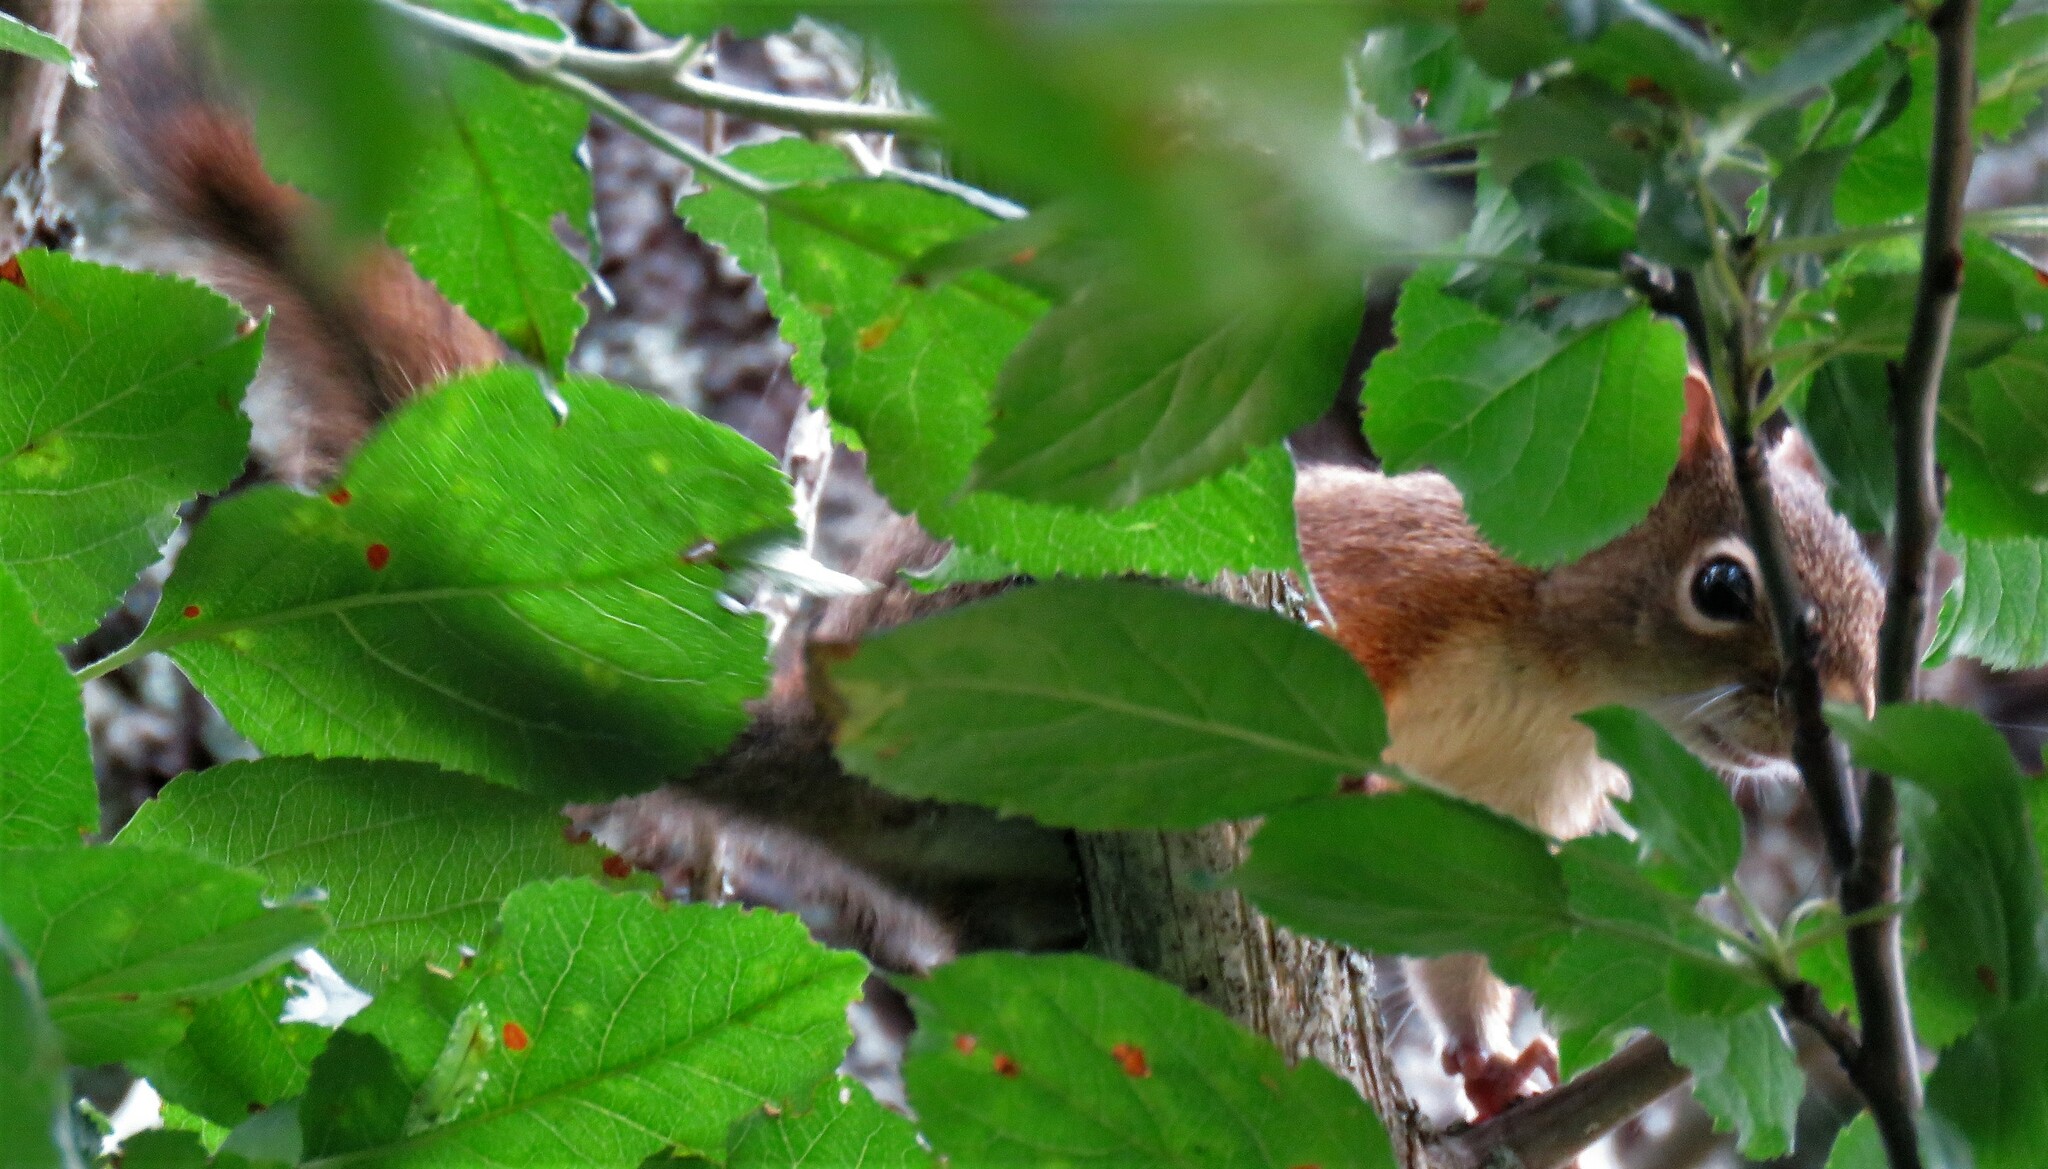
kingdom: Animalia
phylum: Chordata
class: Mammalia
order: Rodentia
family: Sciuridae
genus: Tamiasciurus
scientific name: Tamiasciurus hudsonicus
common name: Red squirrel
